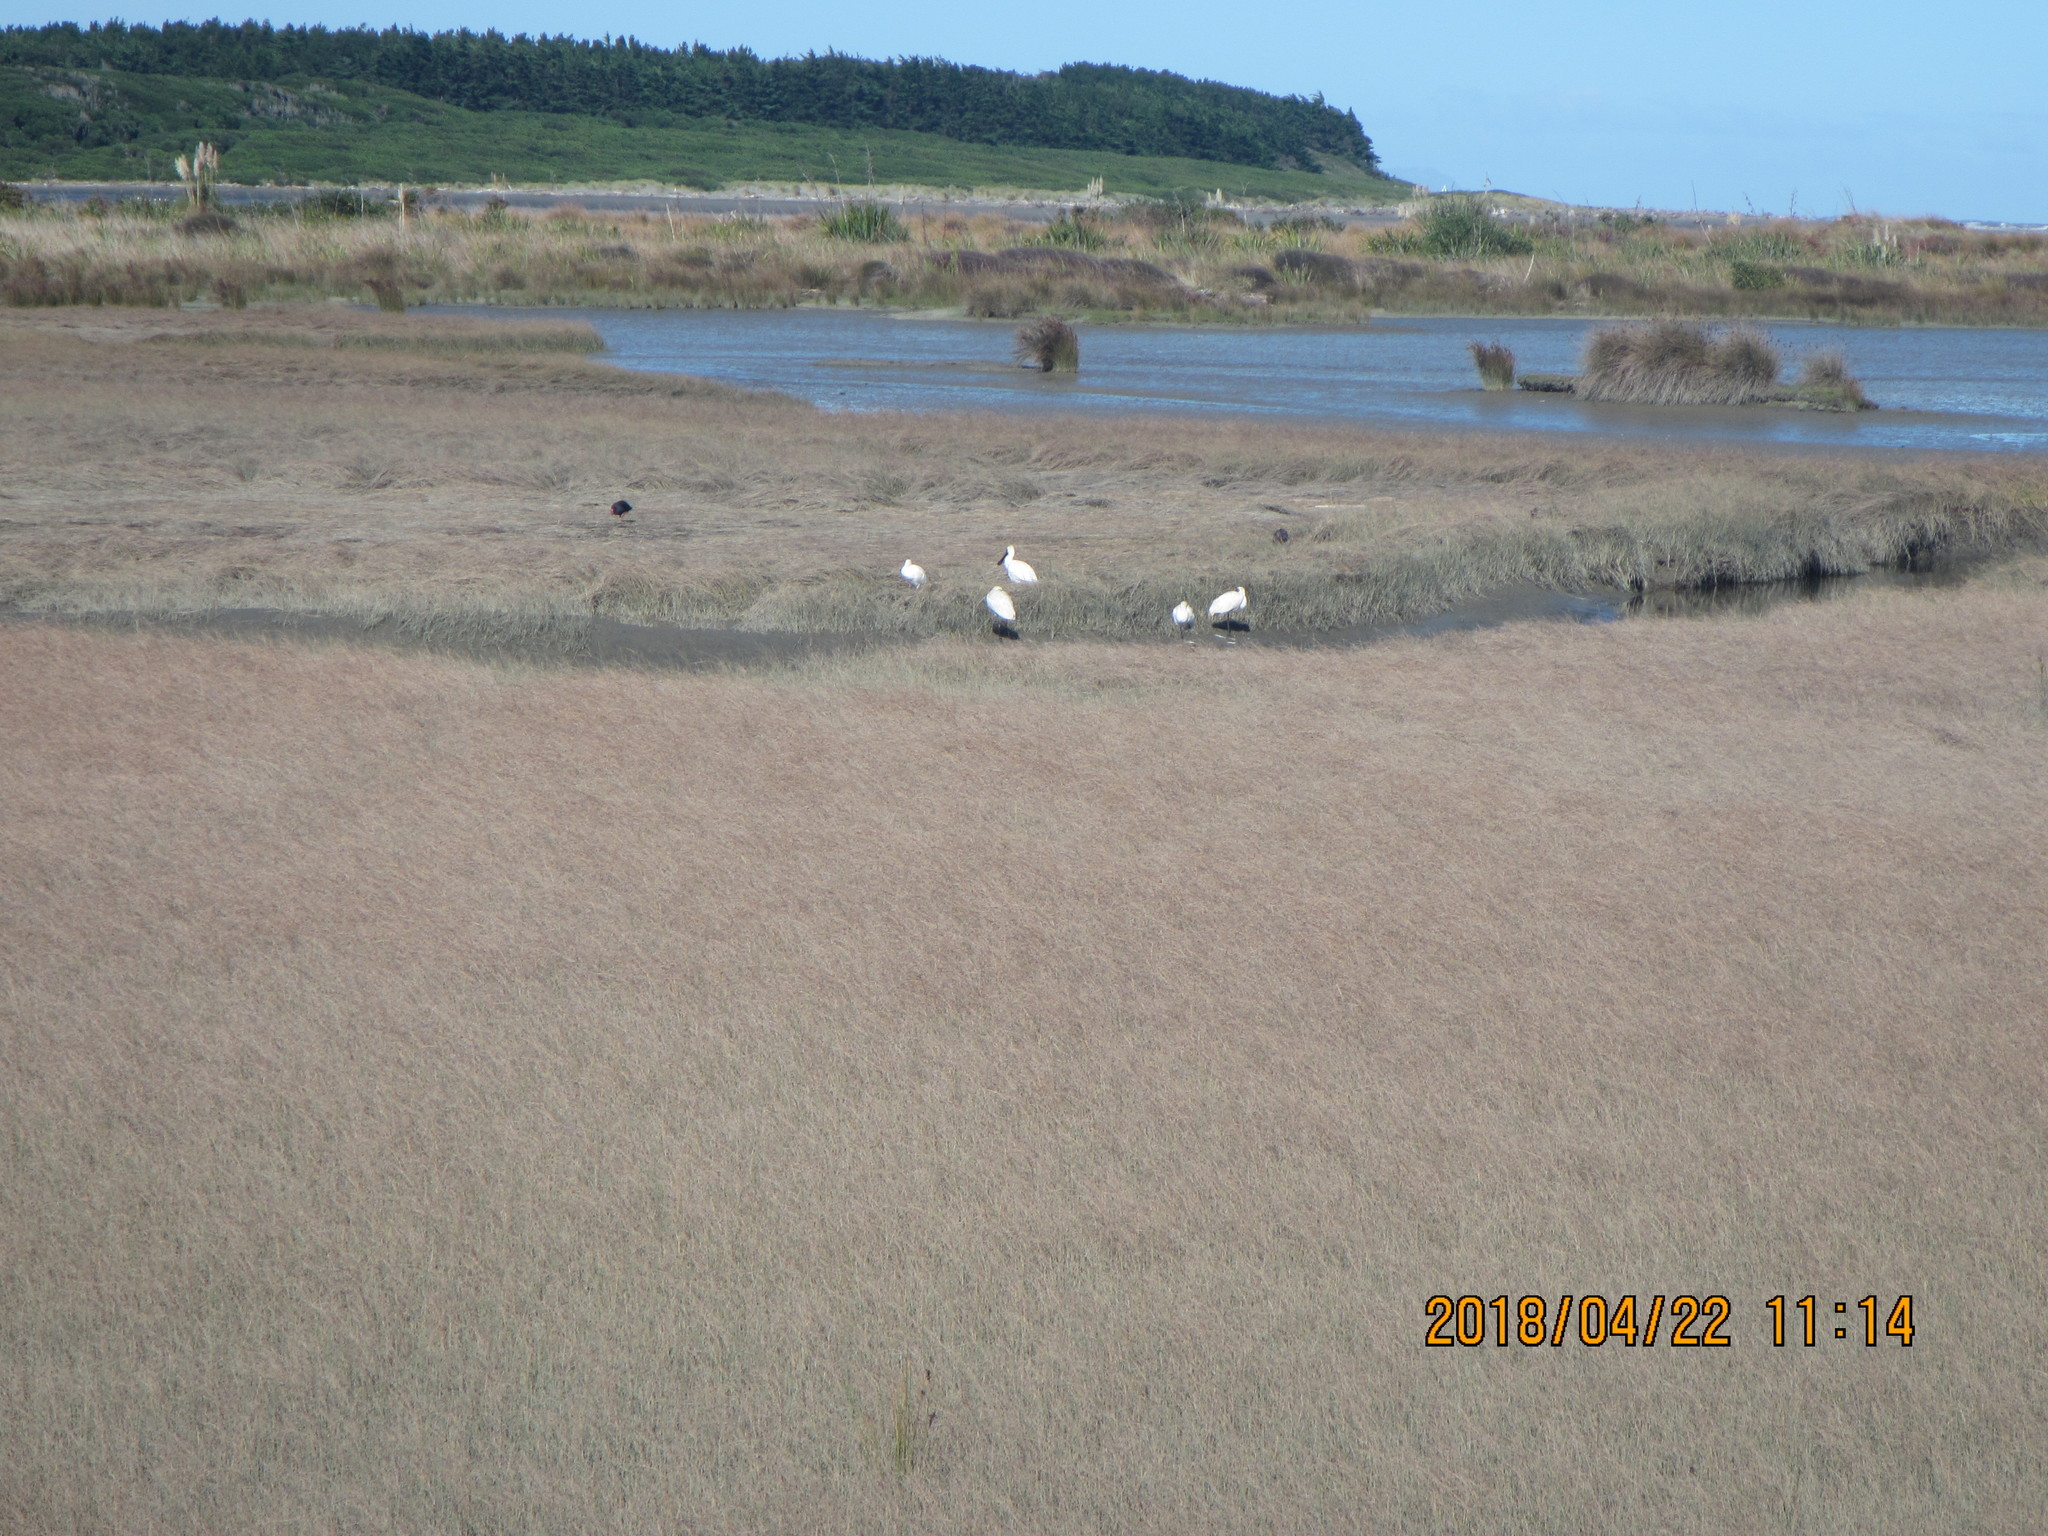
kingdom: Animalia
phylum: Chordata
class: Aves
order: Pelecaniformes
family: Threskiornithidae
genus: Platalea
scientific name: Platalea regia
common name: Royal spoonbill
